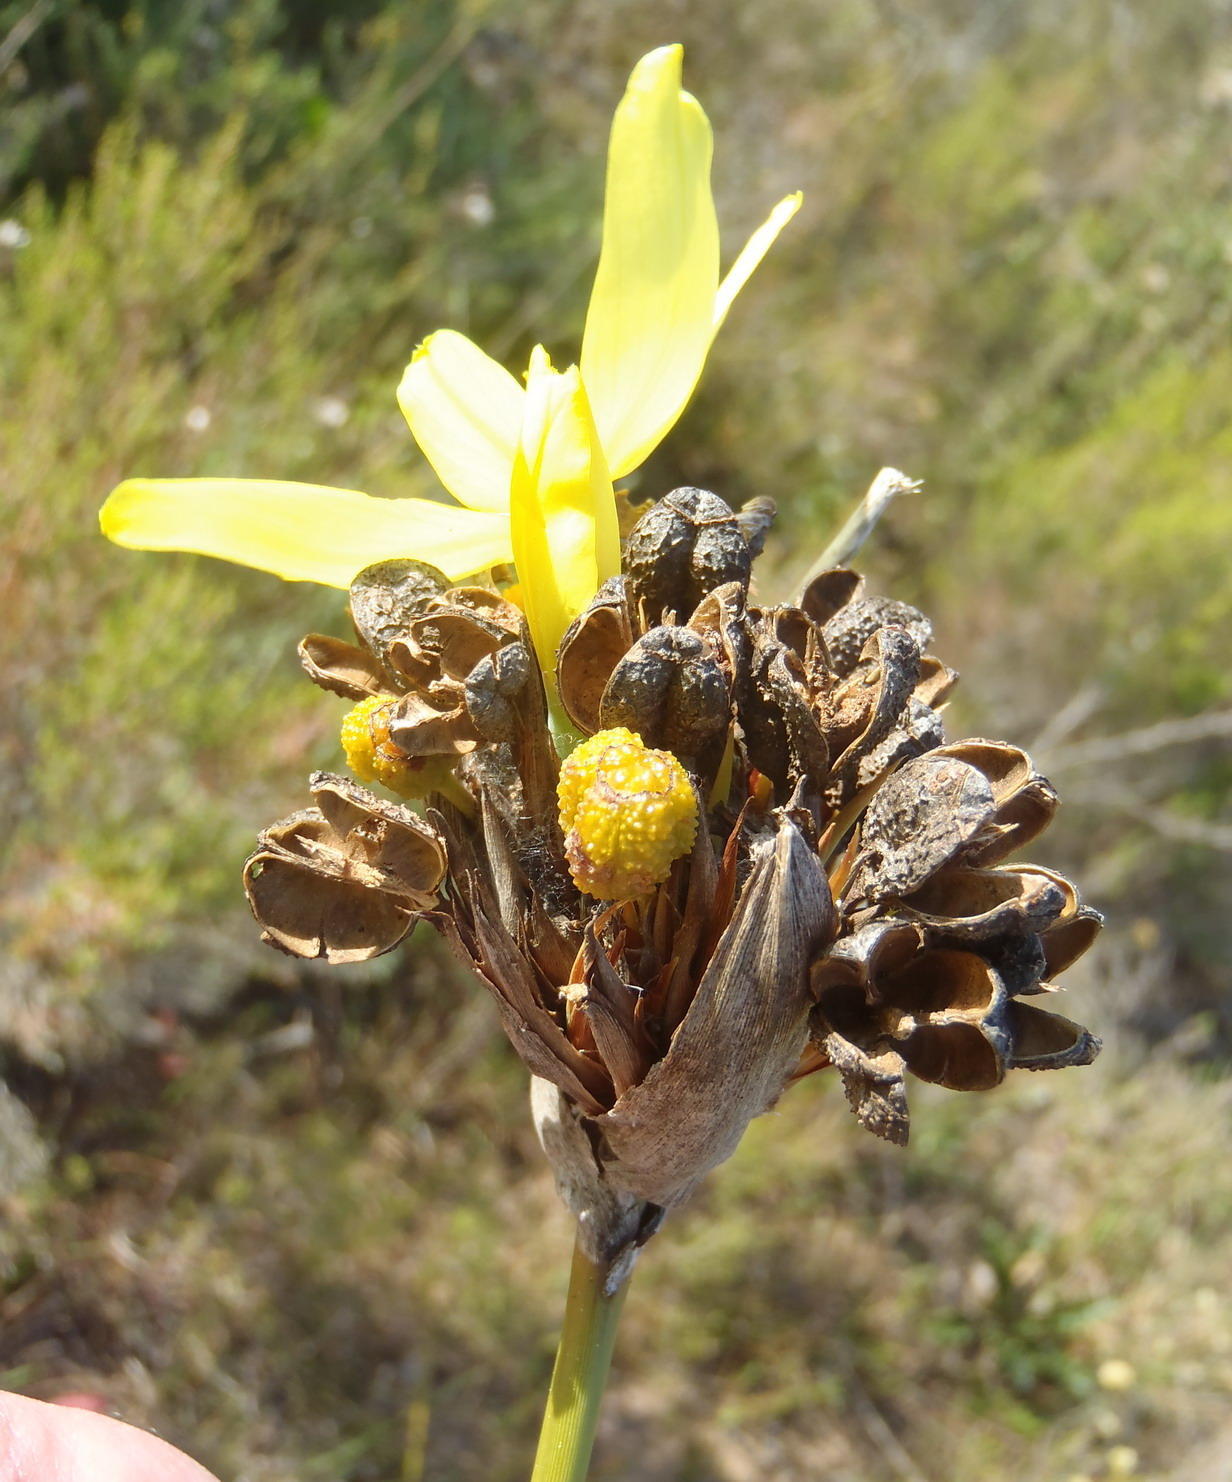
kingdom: Plantae
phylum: Tracheophyta
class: Liliopsida
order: Asparagales
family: Iridaceae
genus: Bobartia
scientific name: Bobartia robusta
